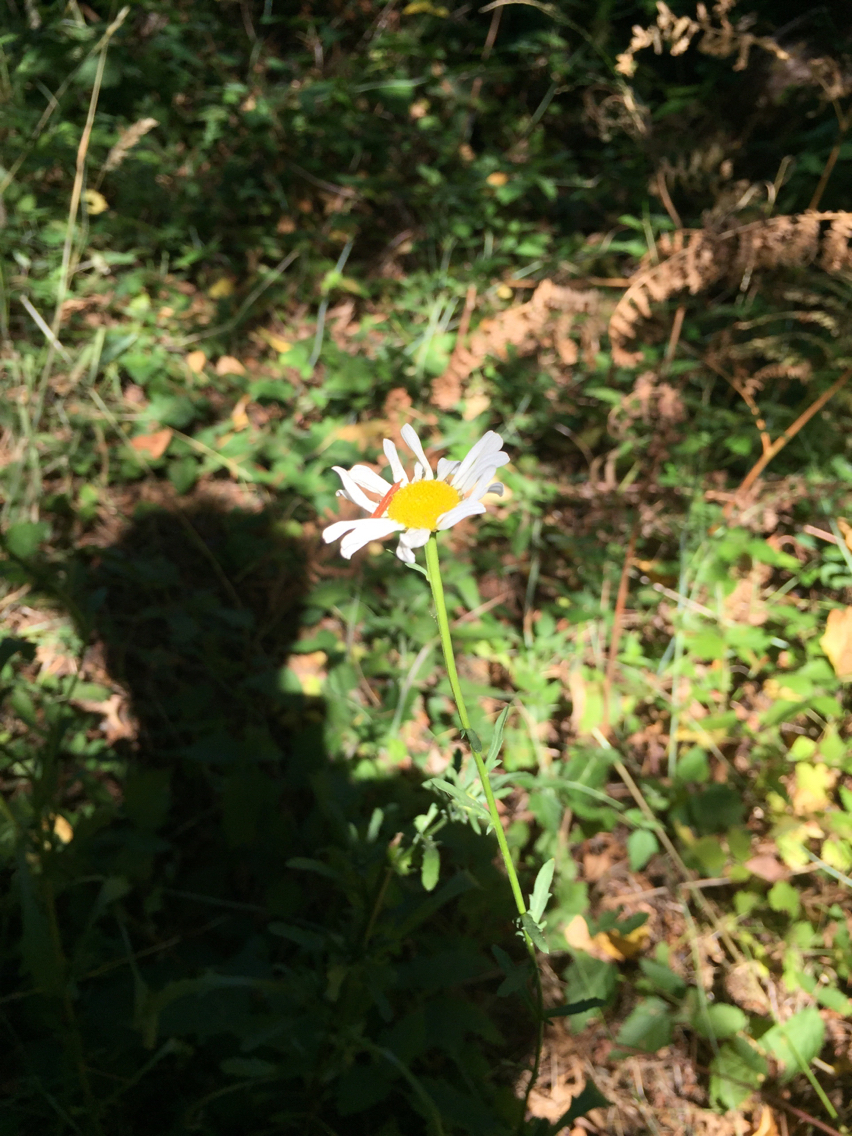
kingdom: Plantae
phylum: Tracheophyta
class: Magnoliopsida
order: Asterales
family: Asteraceae
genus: Leucanthemum
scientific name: Leucanthemum vulgare
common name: Oxeye daisy
